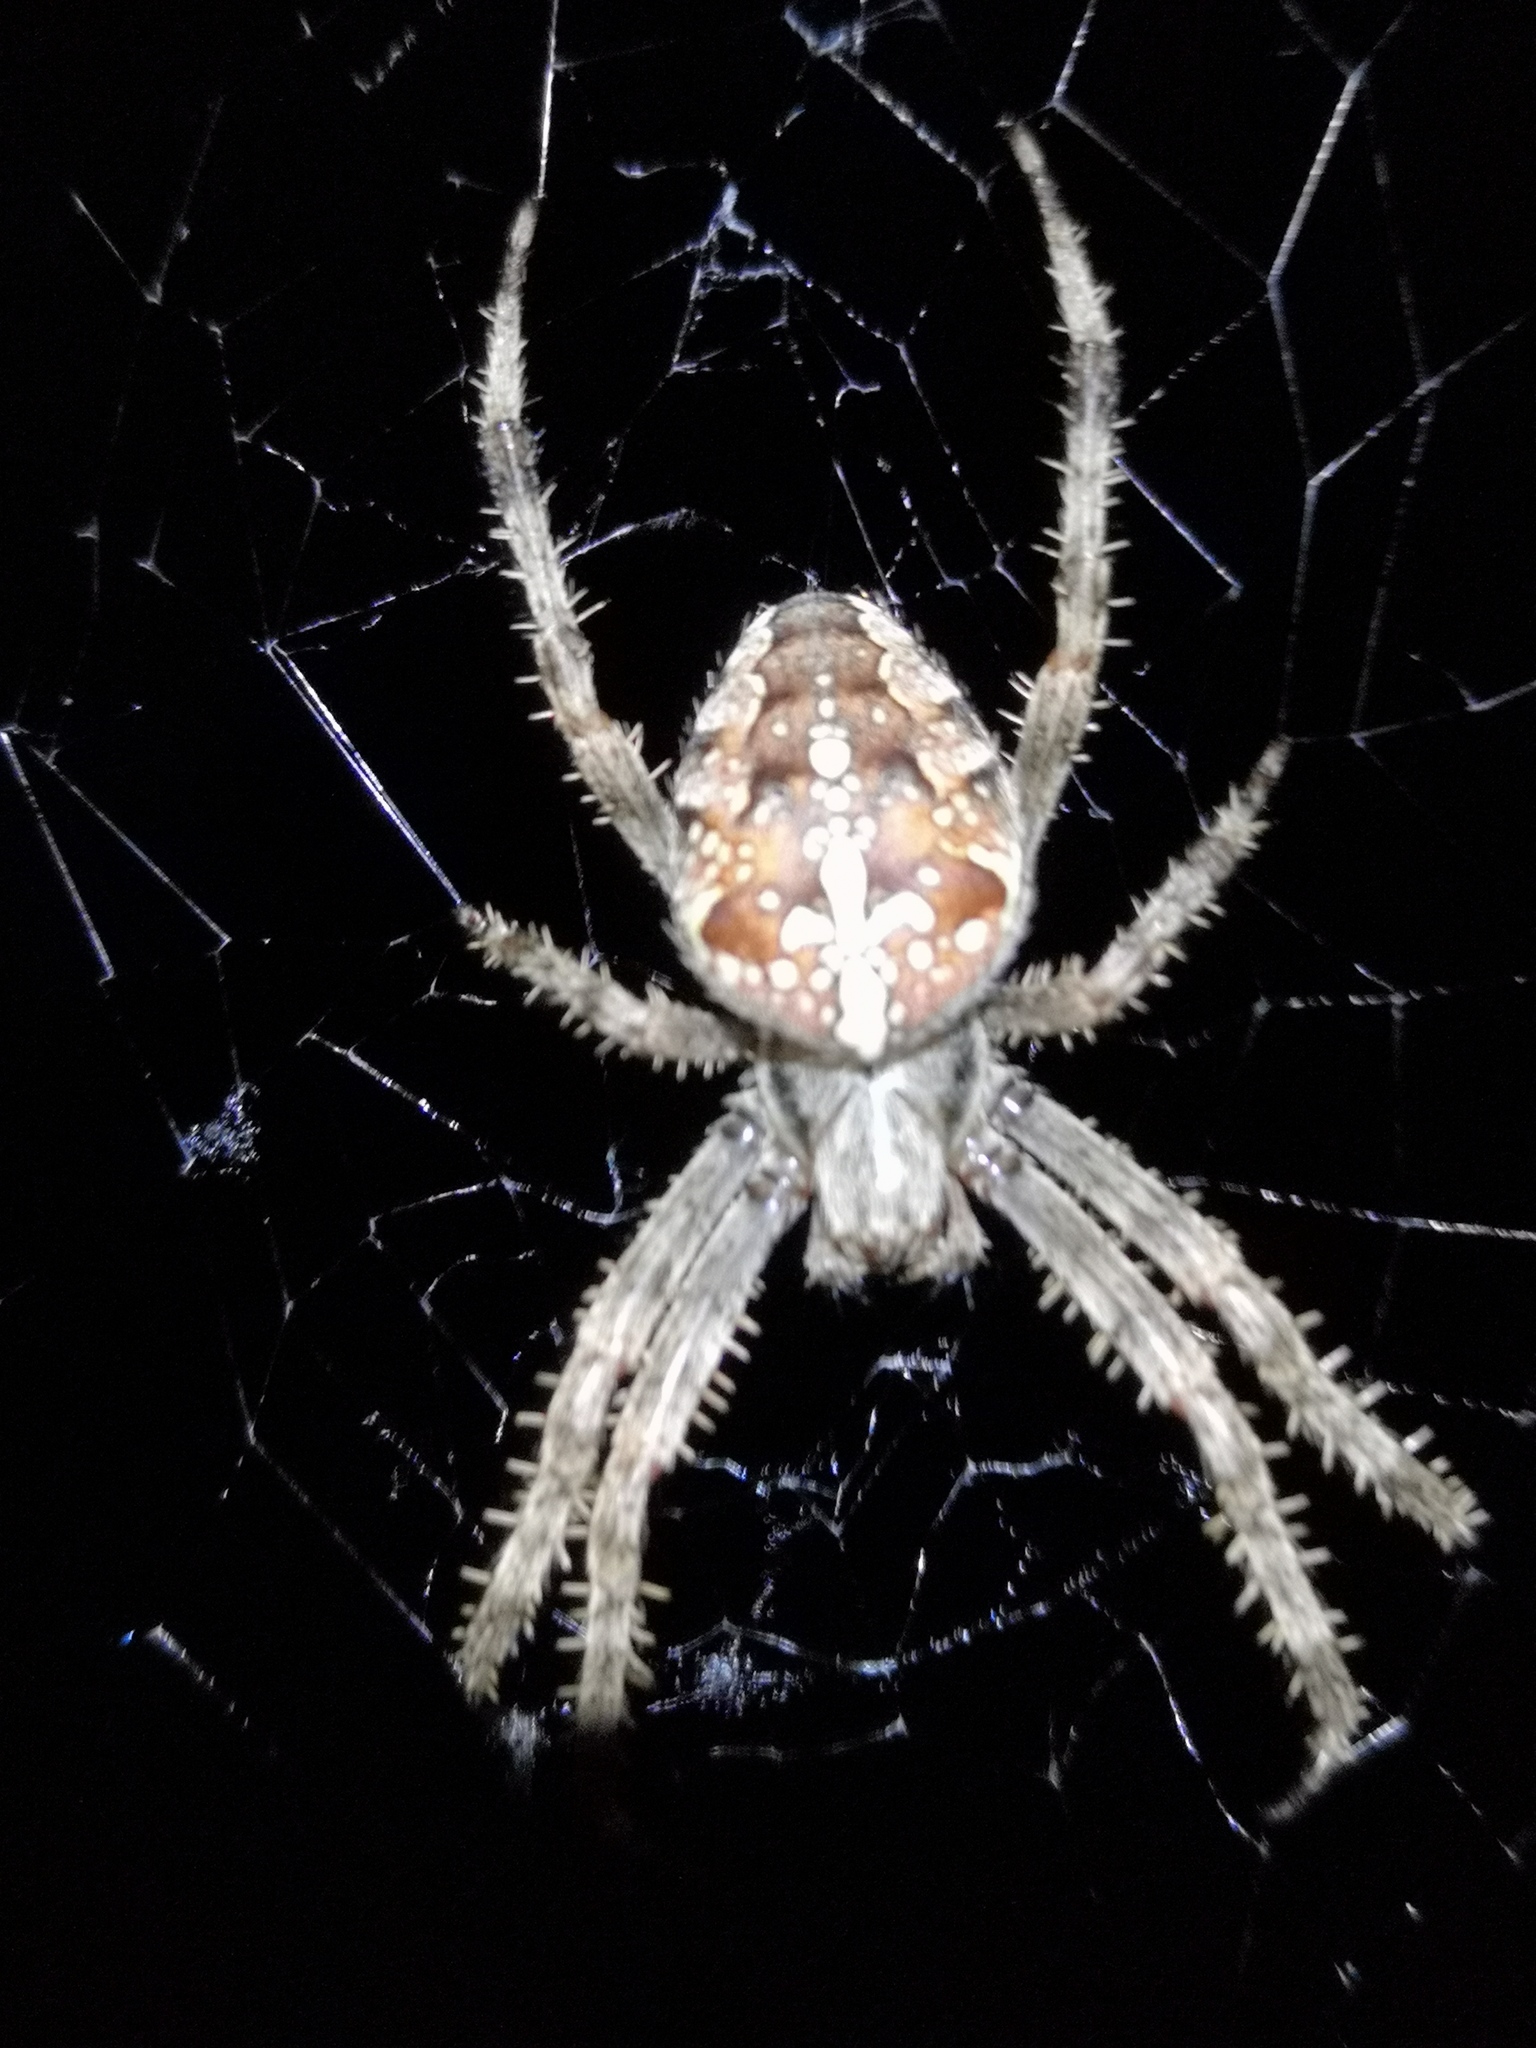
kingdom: Animalia
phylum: Arthropoda
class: Arachnida
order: Araneae
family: Araneidae
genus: Araneus
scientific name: Araneus diadematus
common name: Cross orbweaver
